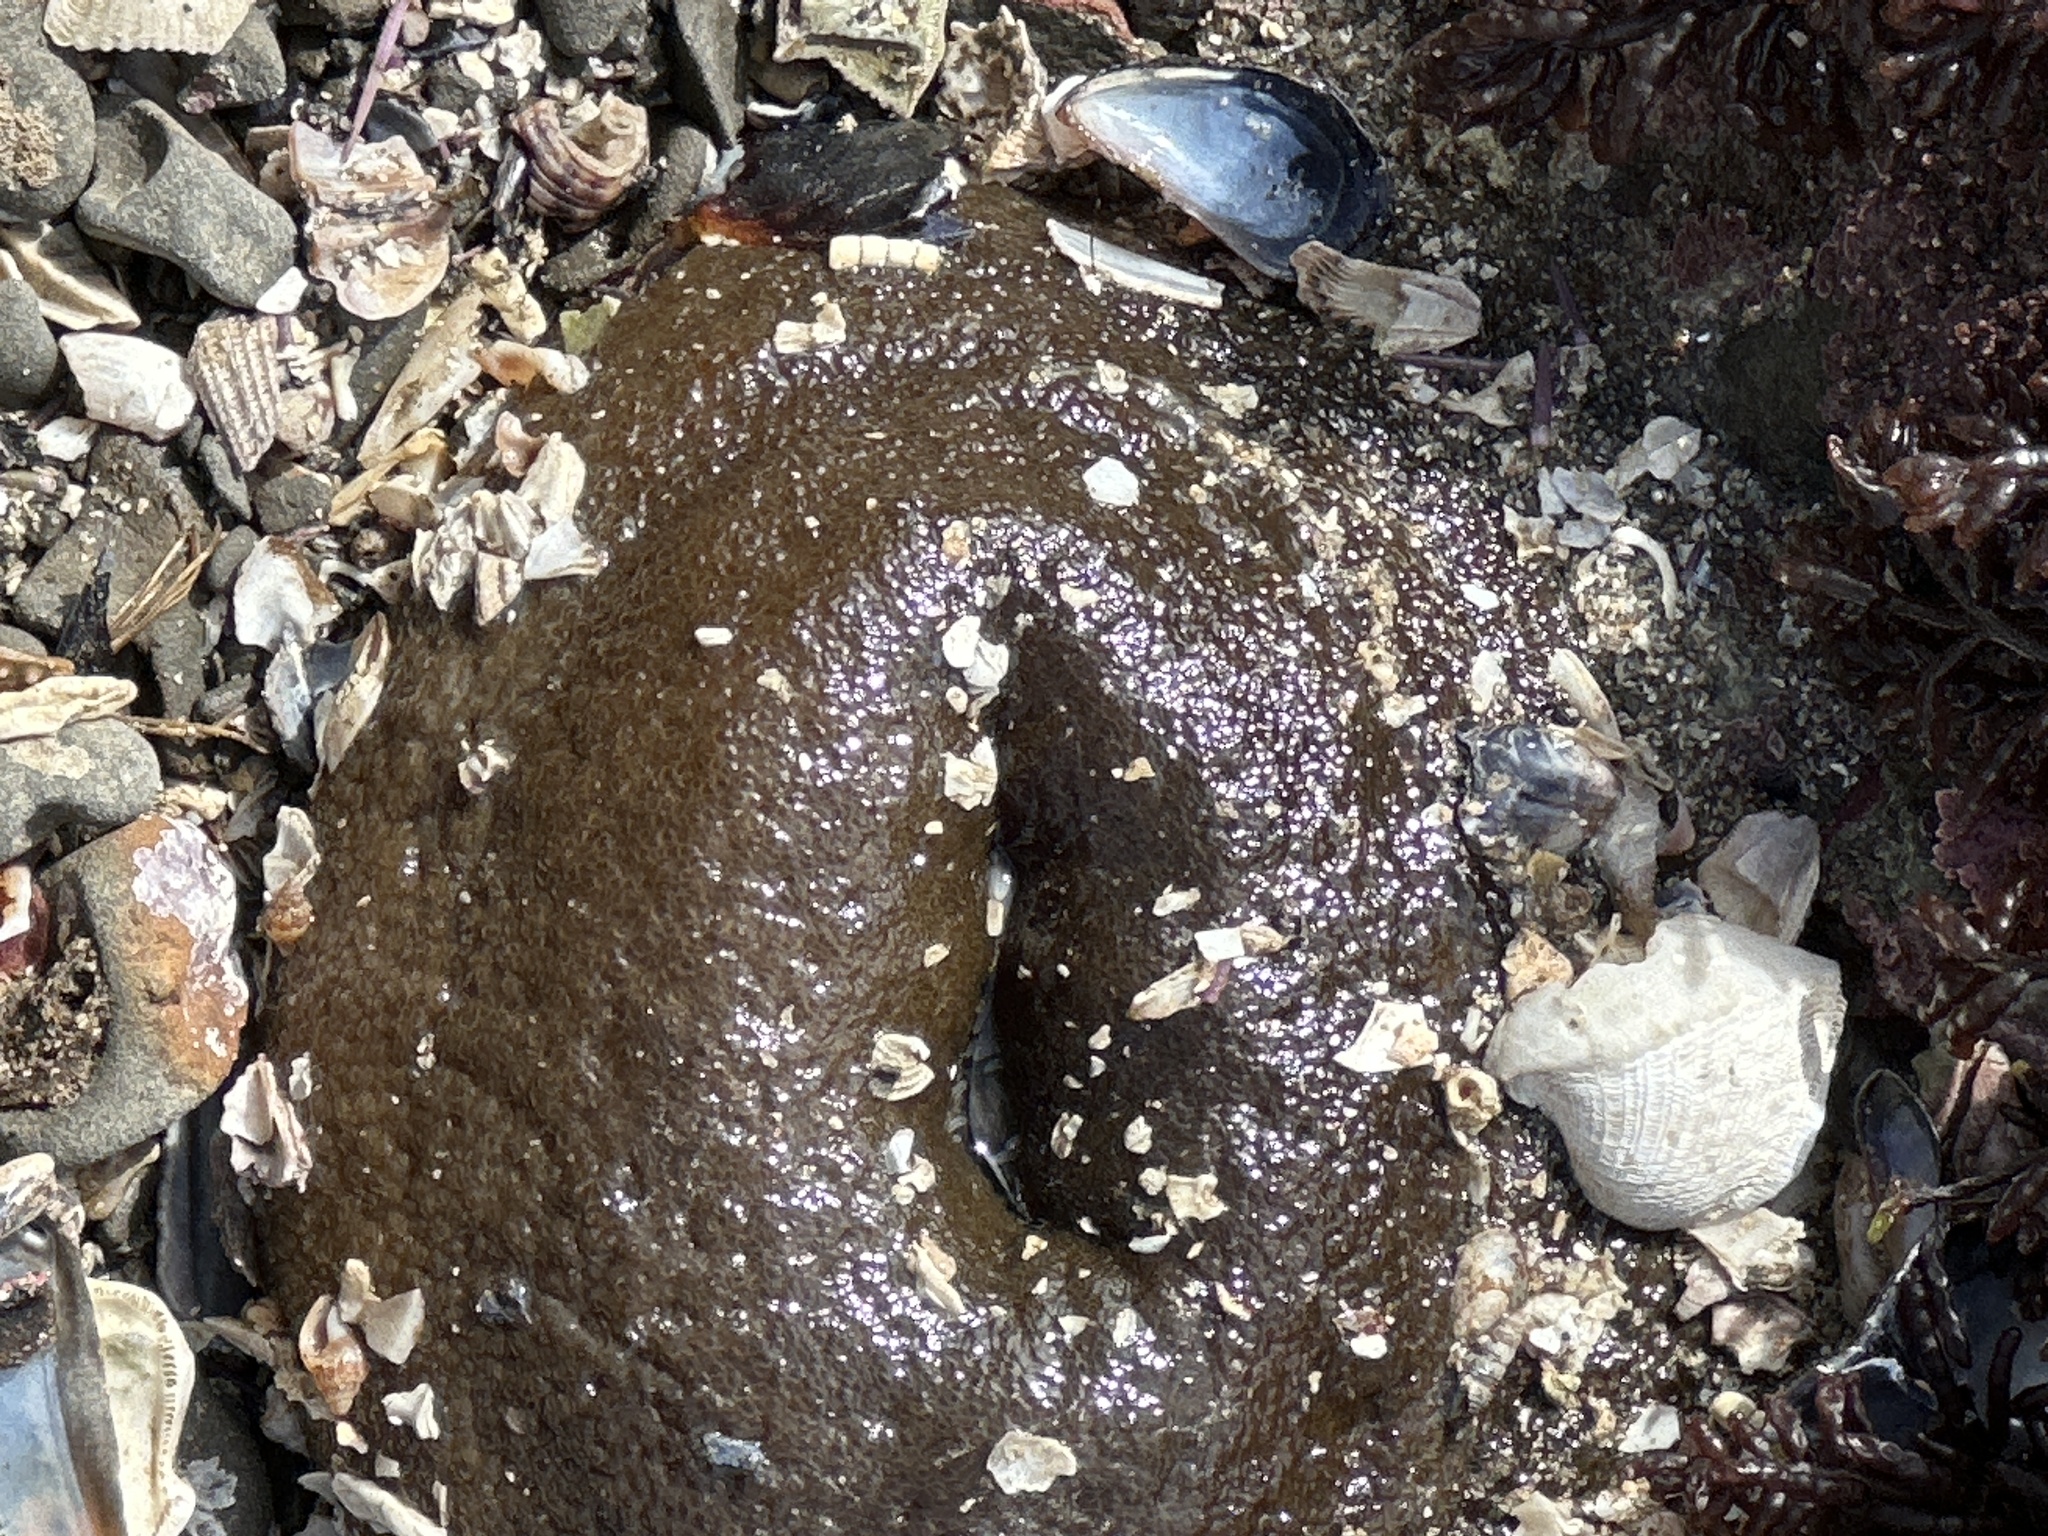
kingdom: Animalia
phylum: Cnidaria
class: Anthozoa
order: Actiniaria
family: Actiniidae
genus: Anthopleura
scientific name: Anthopleura xanthogrammica
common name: Giant green anemone
